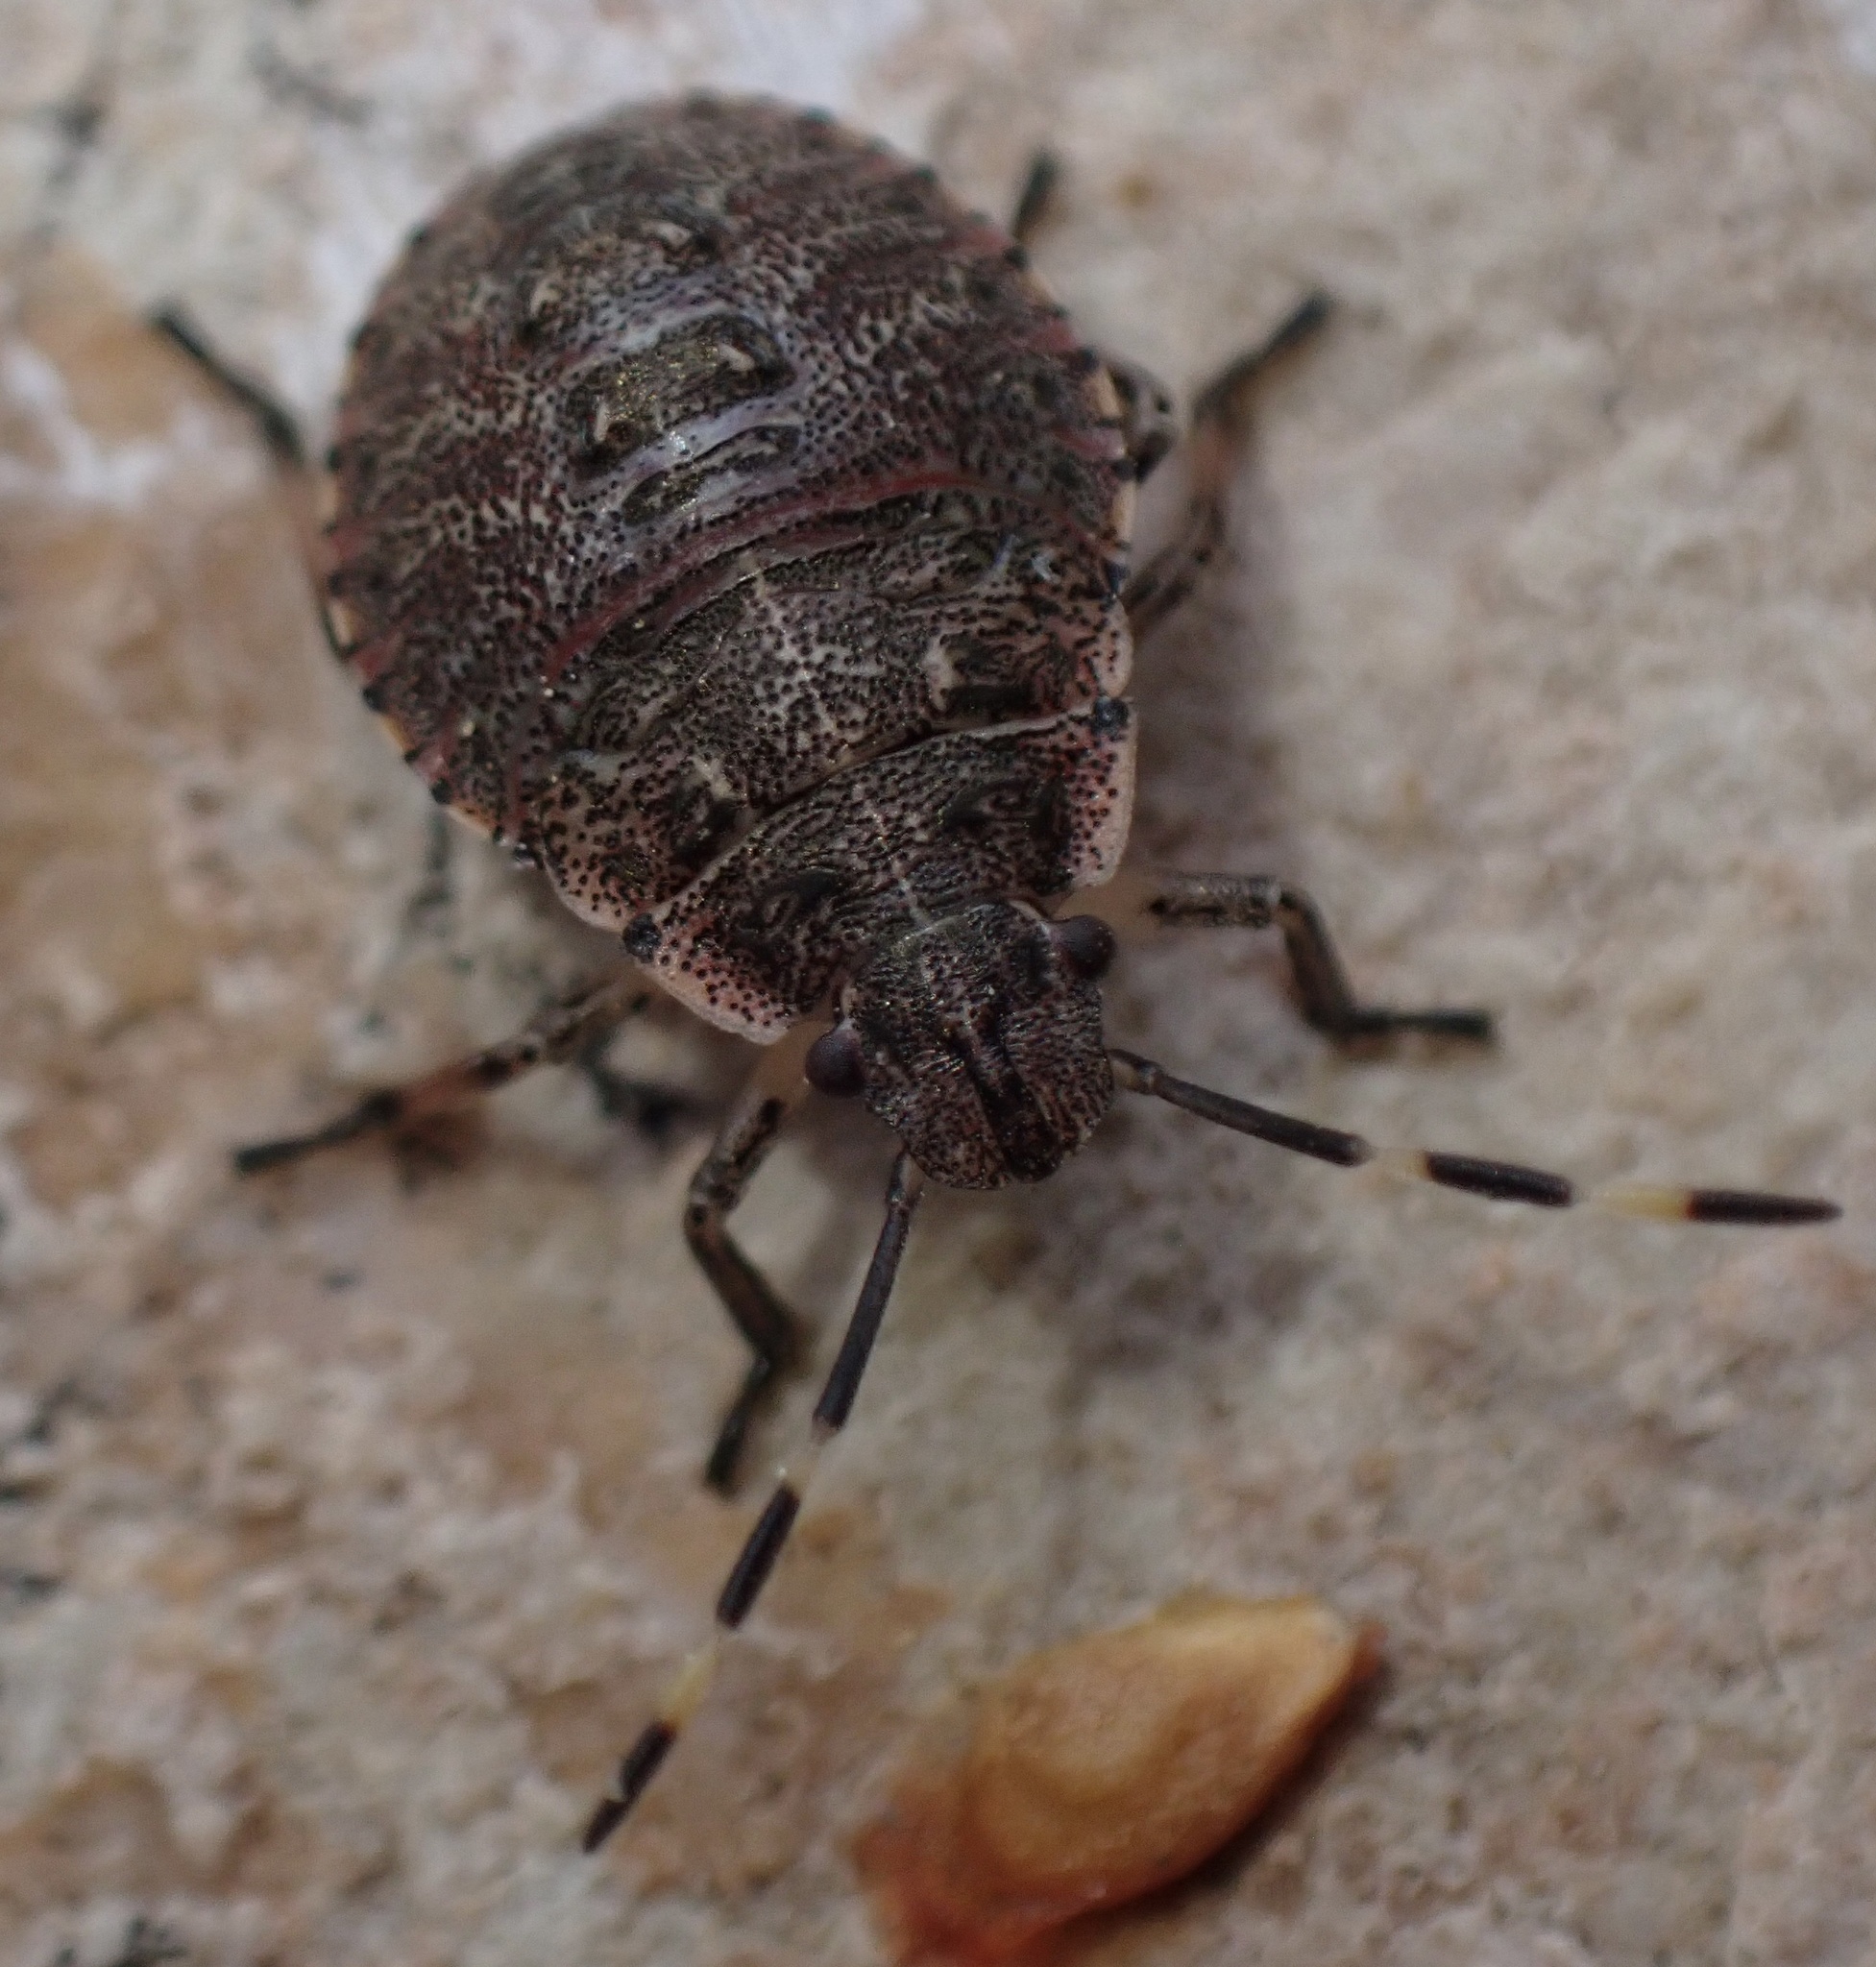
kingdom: Animalia
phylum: Arthropoda
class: Insecta
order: Hemiptera
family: Pentatomidae
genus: Rhaphigaster
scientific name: Rhaphigaster nebulosa
